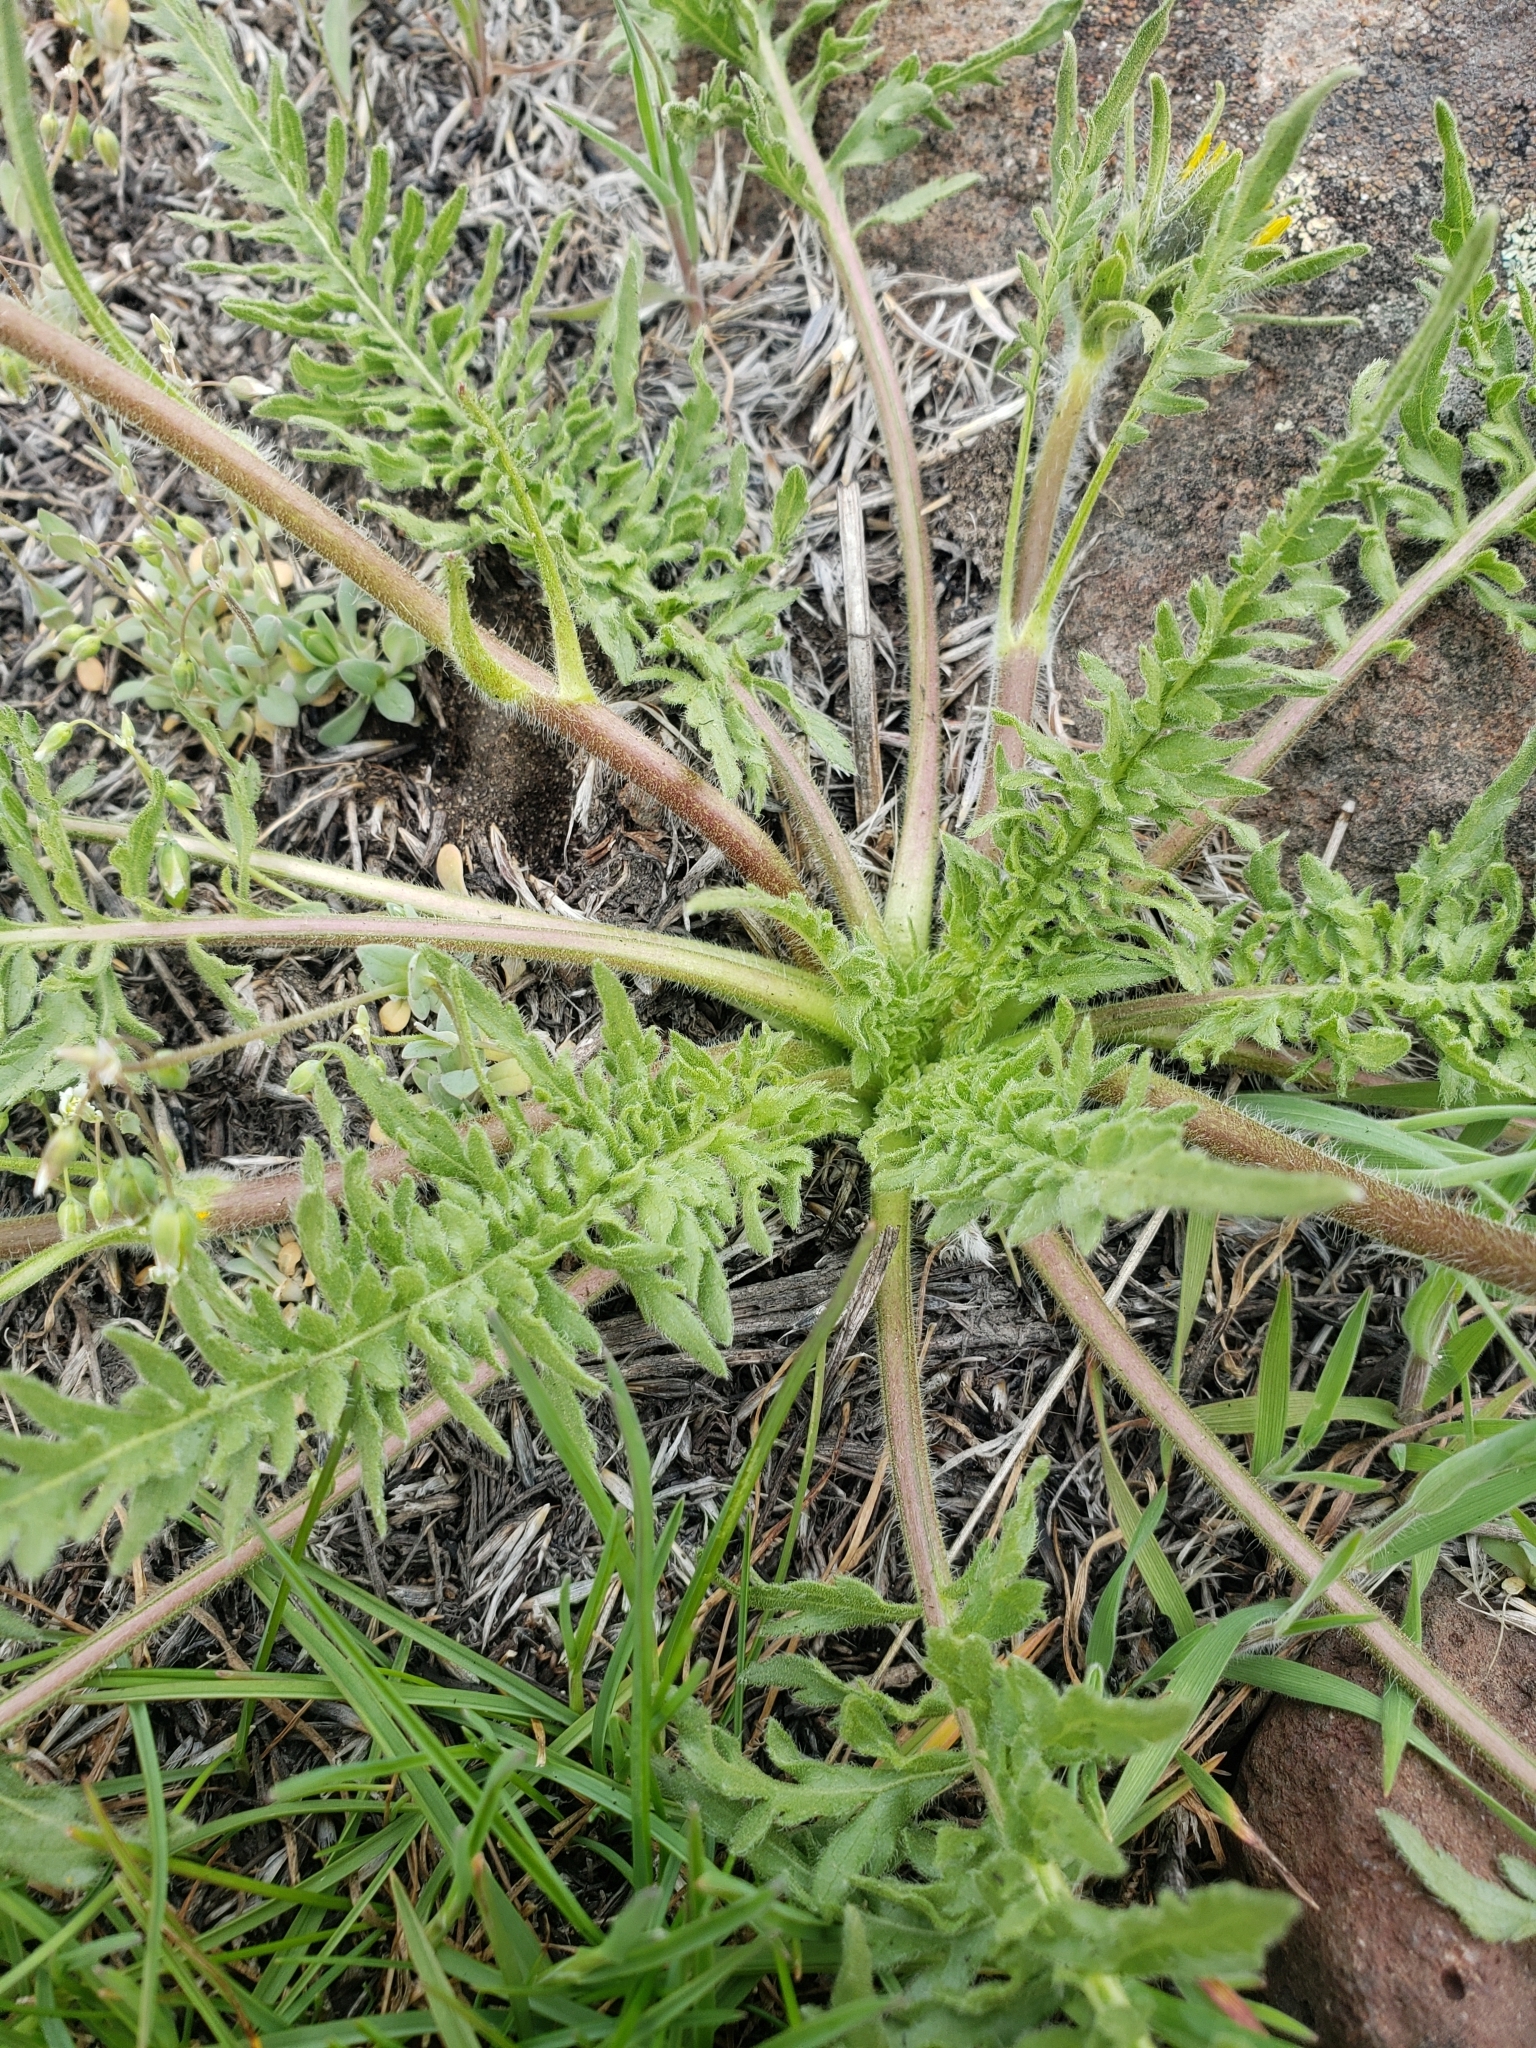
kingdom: Plantae
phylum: Tracheophyta
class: Magnoliopsida
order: Asterales
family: Asteraceae
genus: Balsamorhiza
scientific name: Balsamorhiza hookeri
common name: Hooker's balsamroot
